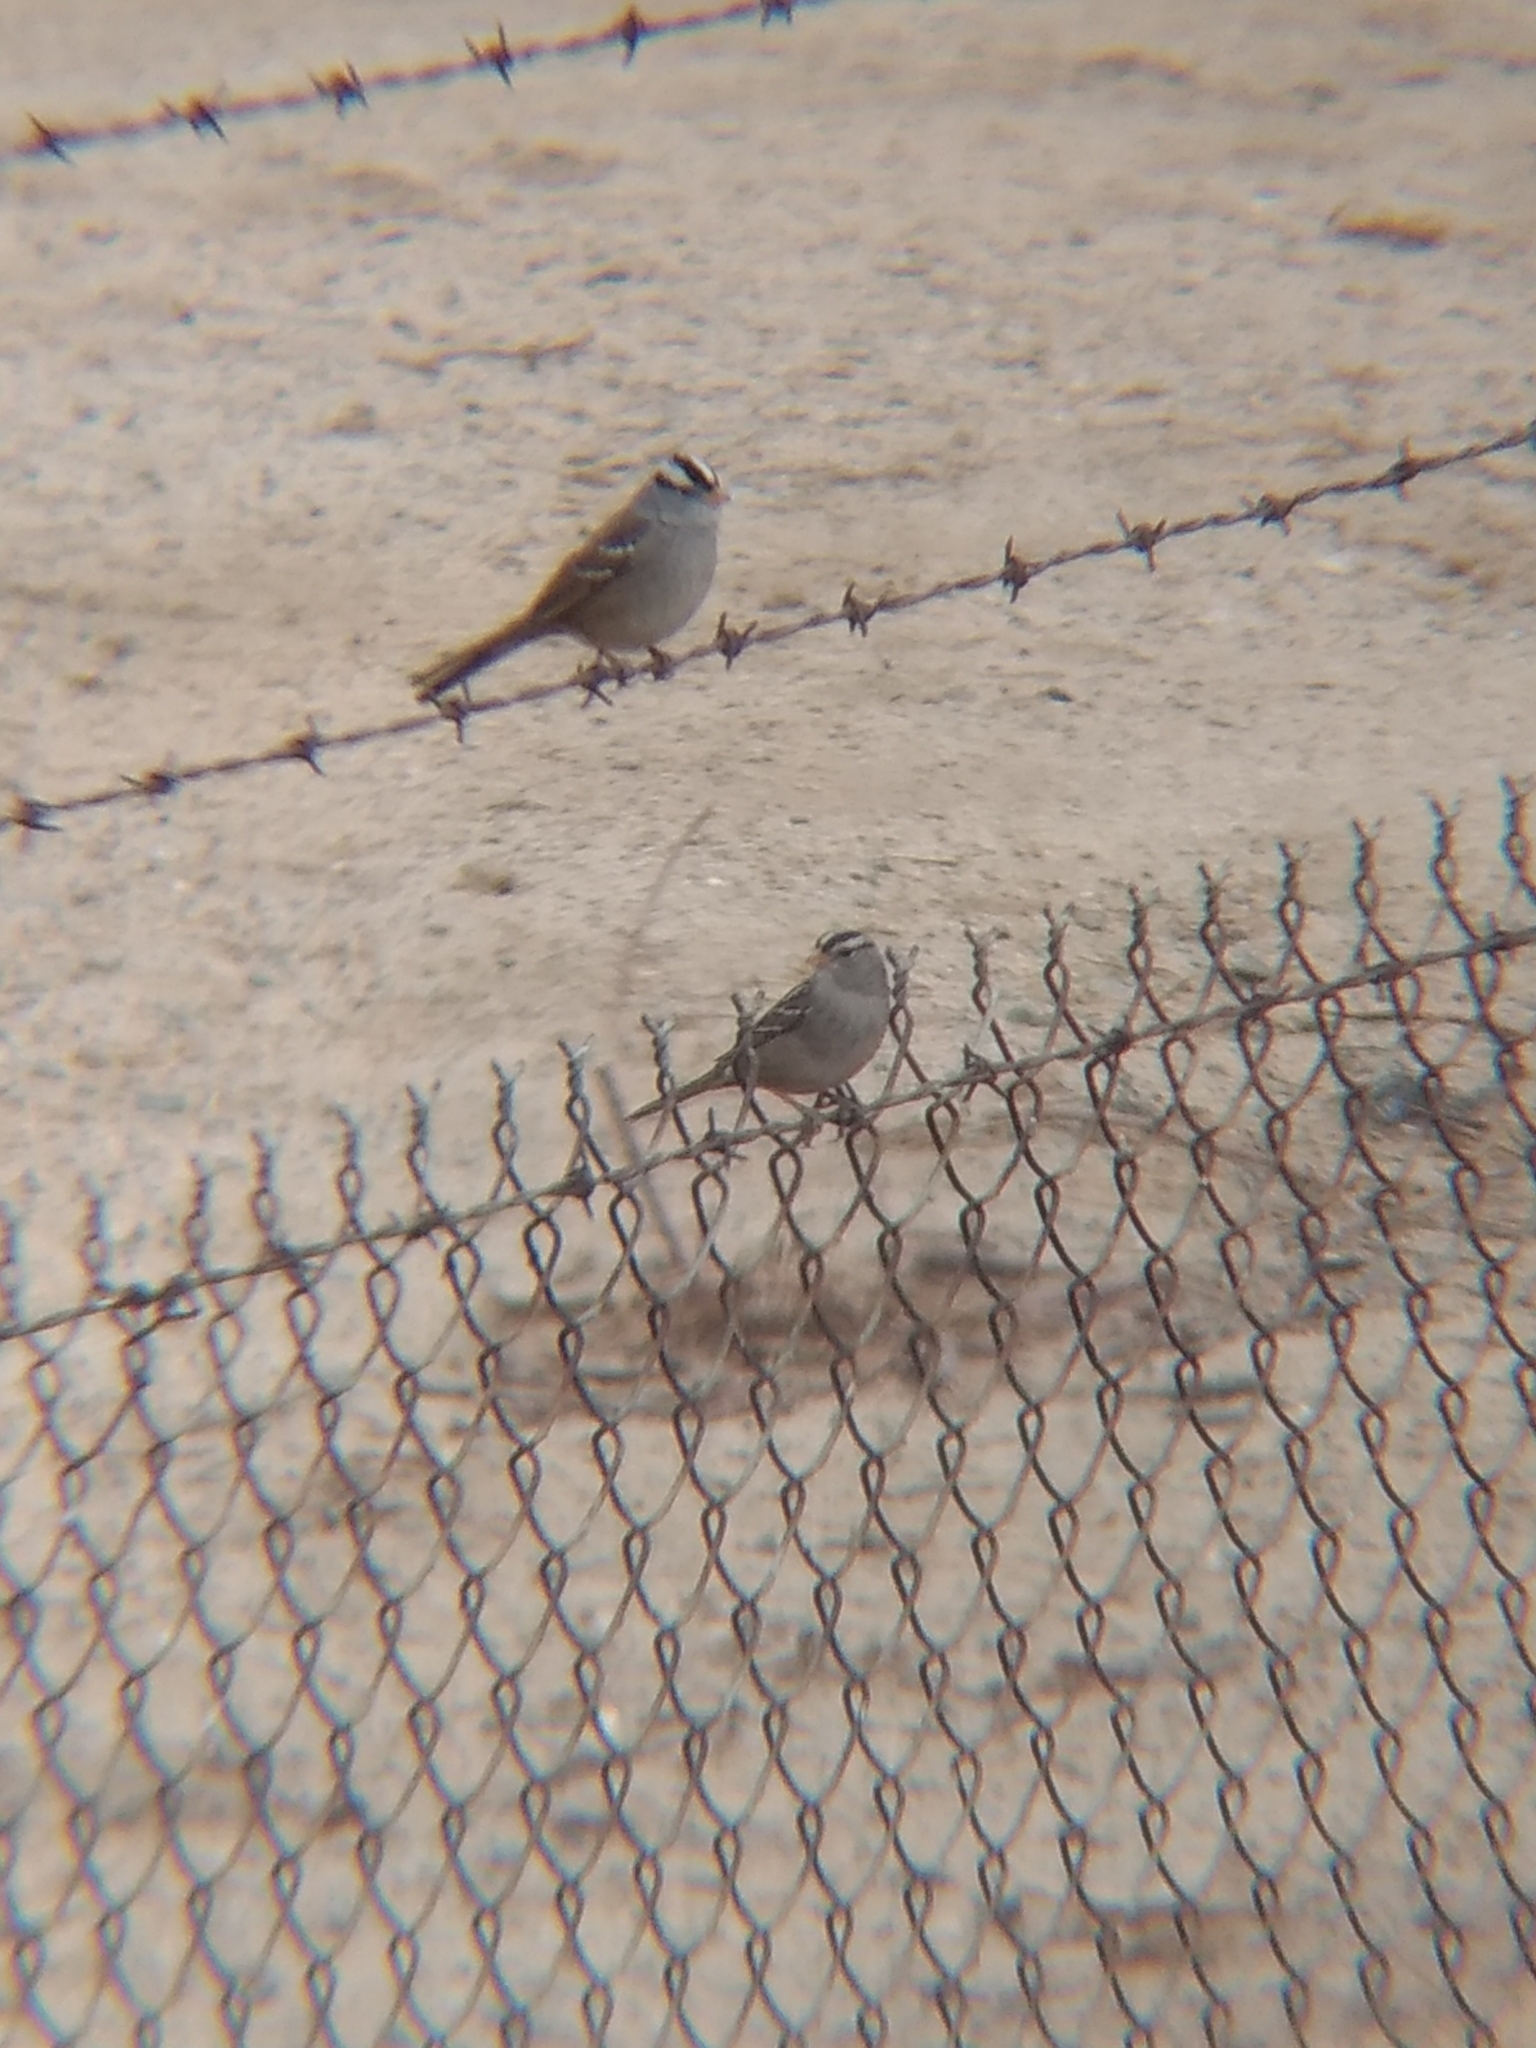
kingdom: Animalia
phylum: Chordata
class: Aves
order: Passeriformes
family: Passerellidae
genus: Zonotrichia
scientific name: Zonotrichia leucophrys
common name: White-crowned sparrow
